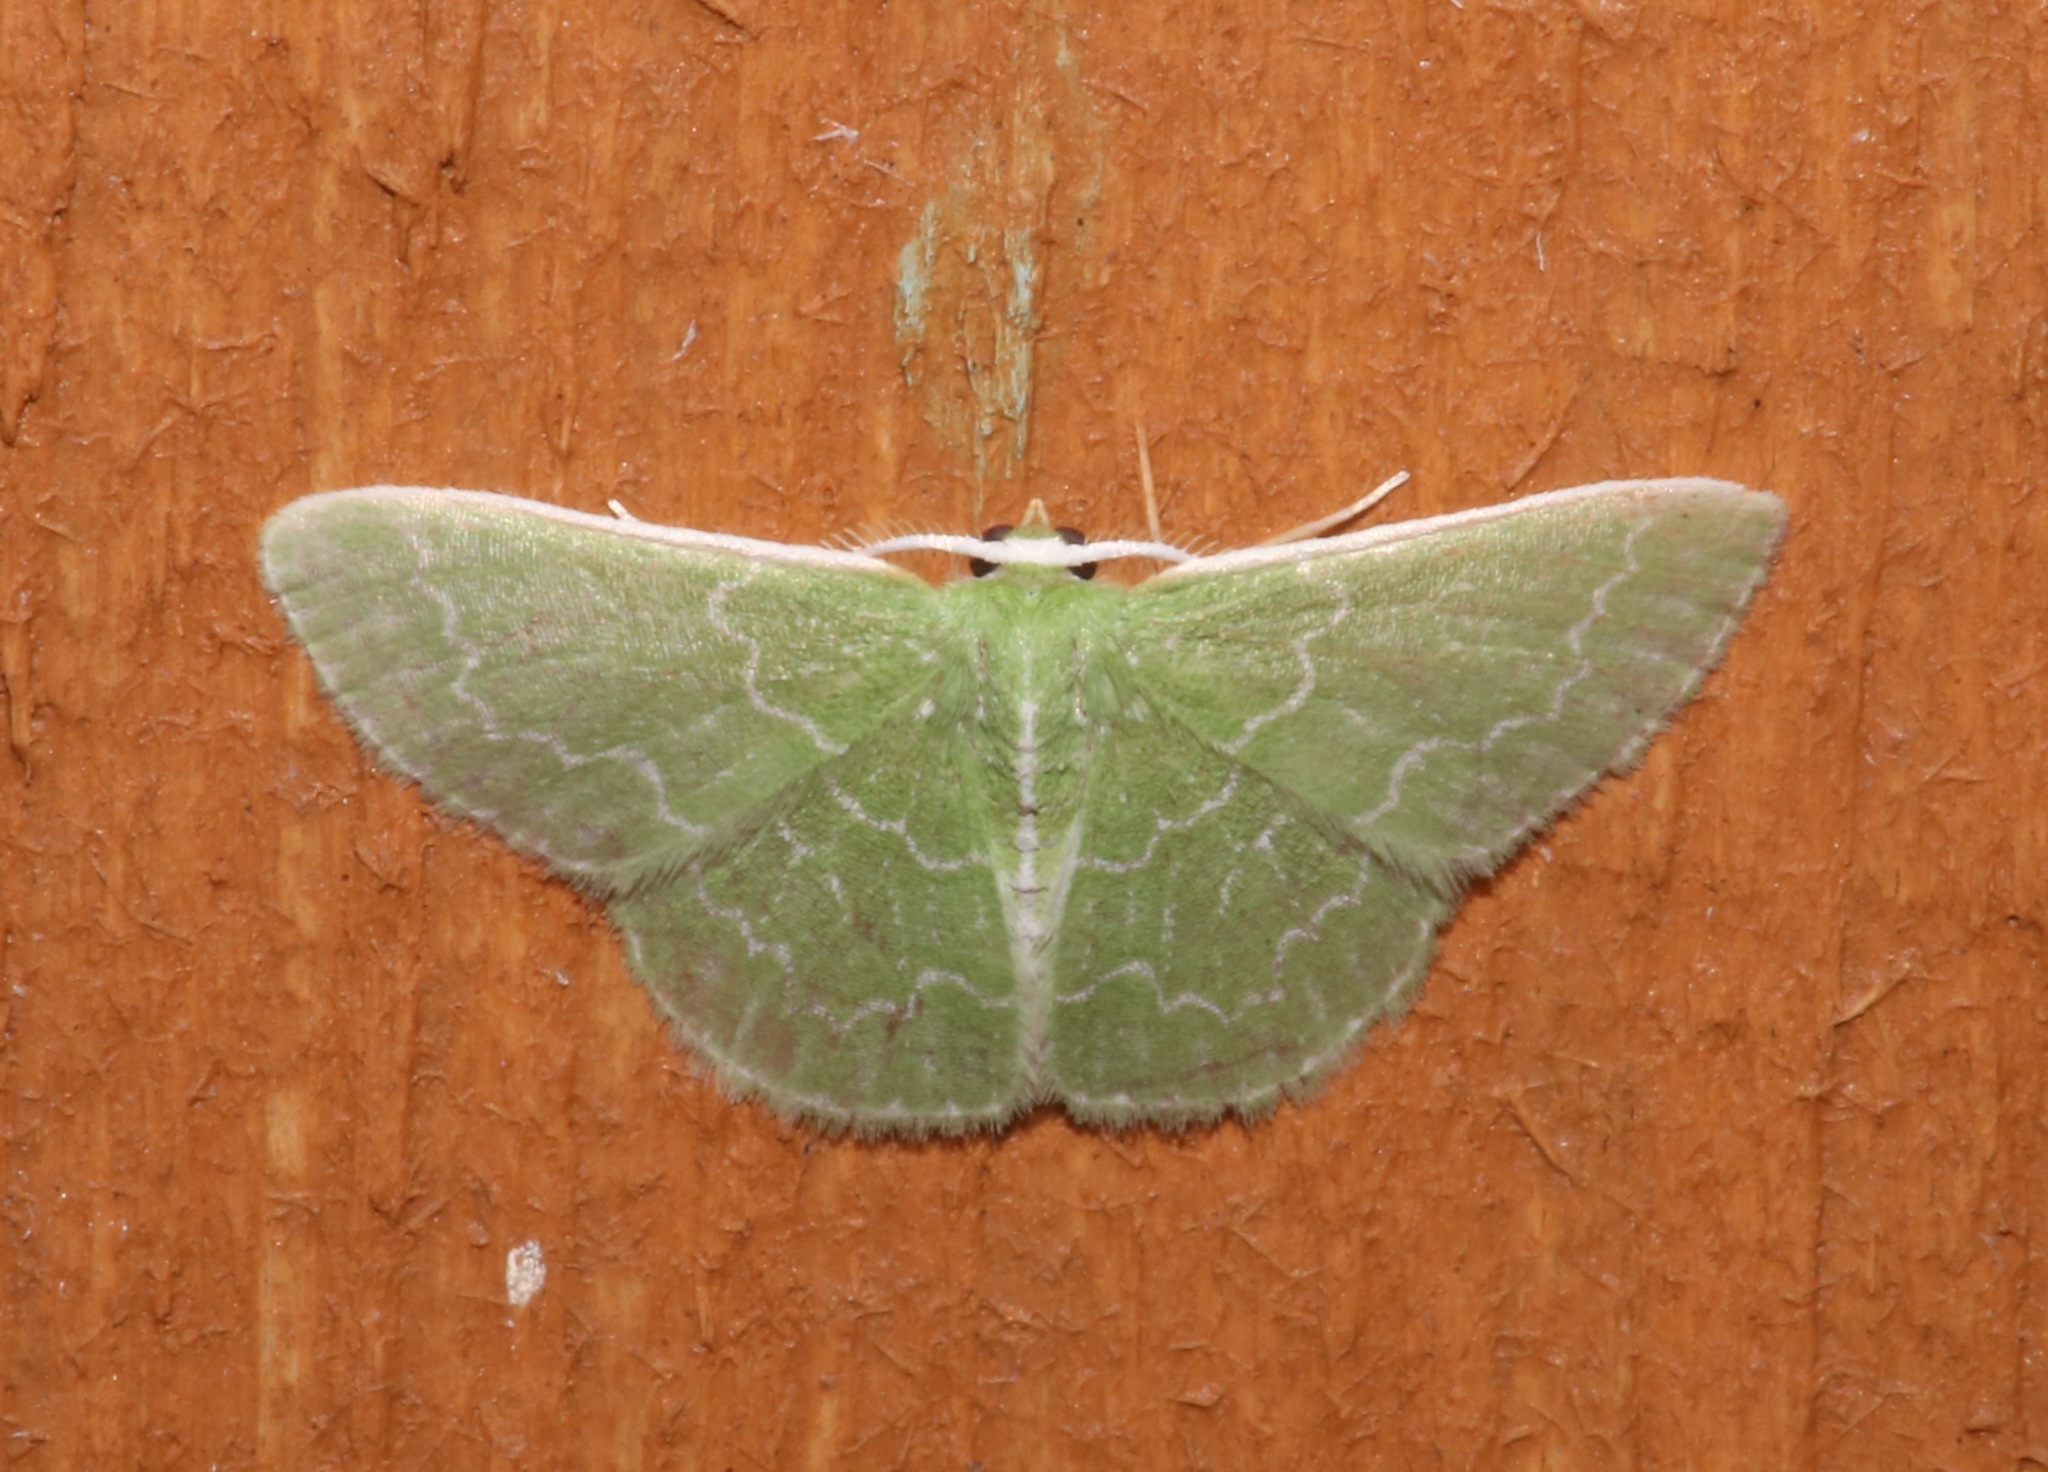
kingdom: Animalia
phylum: Arthropoda
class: Insecta
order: Lepidoptera
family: Geometridae
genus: Synchlora
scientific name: Synchlora frondaria
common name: Southern emerald
